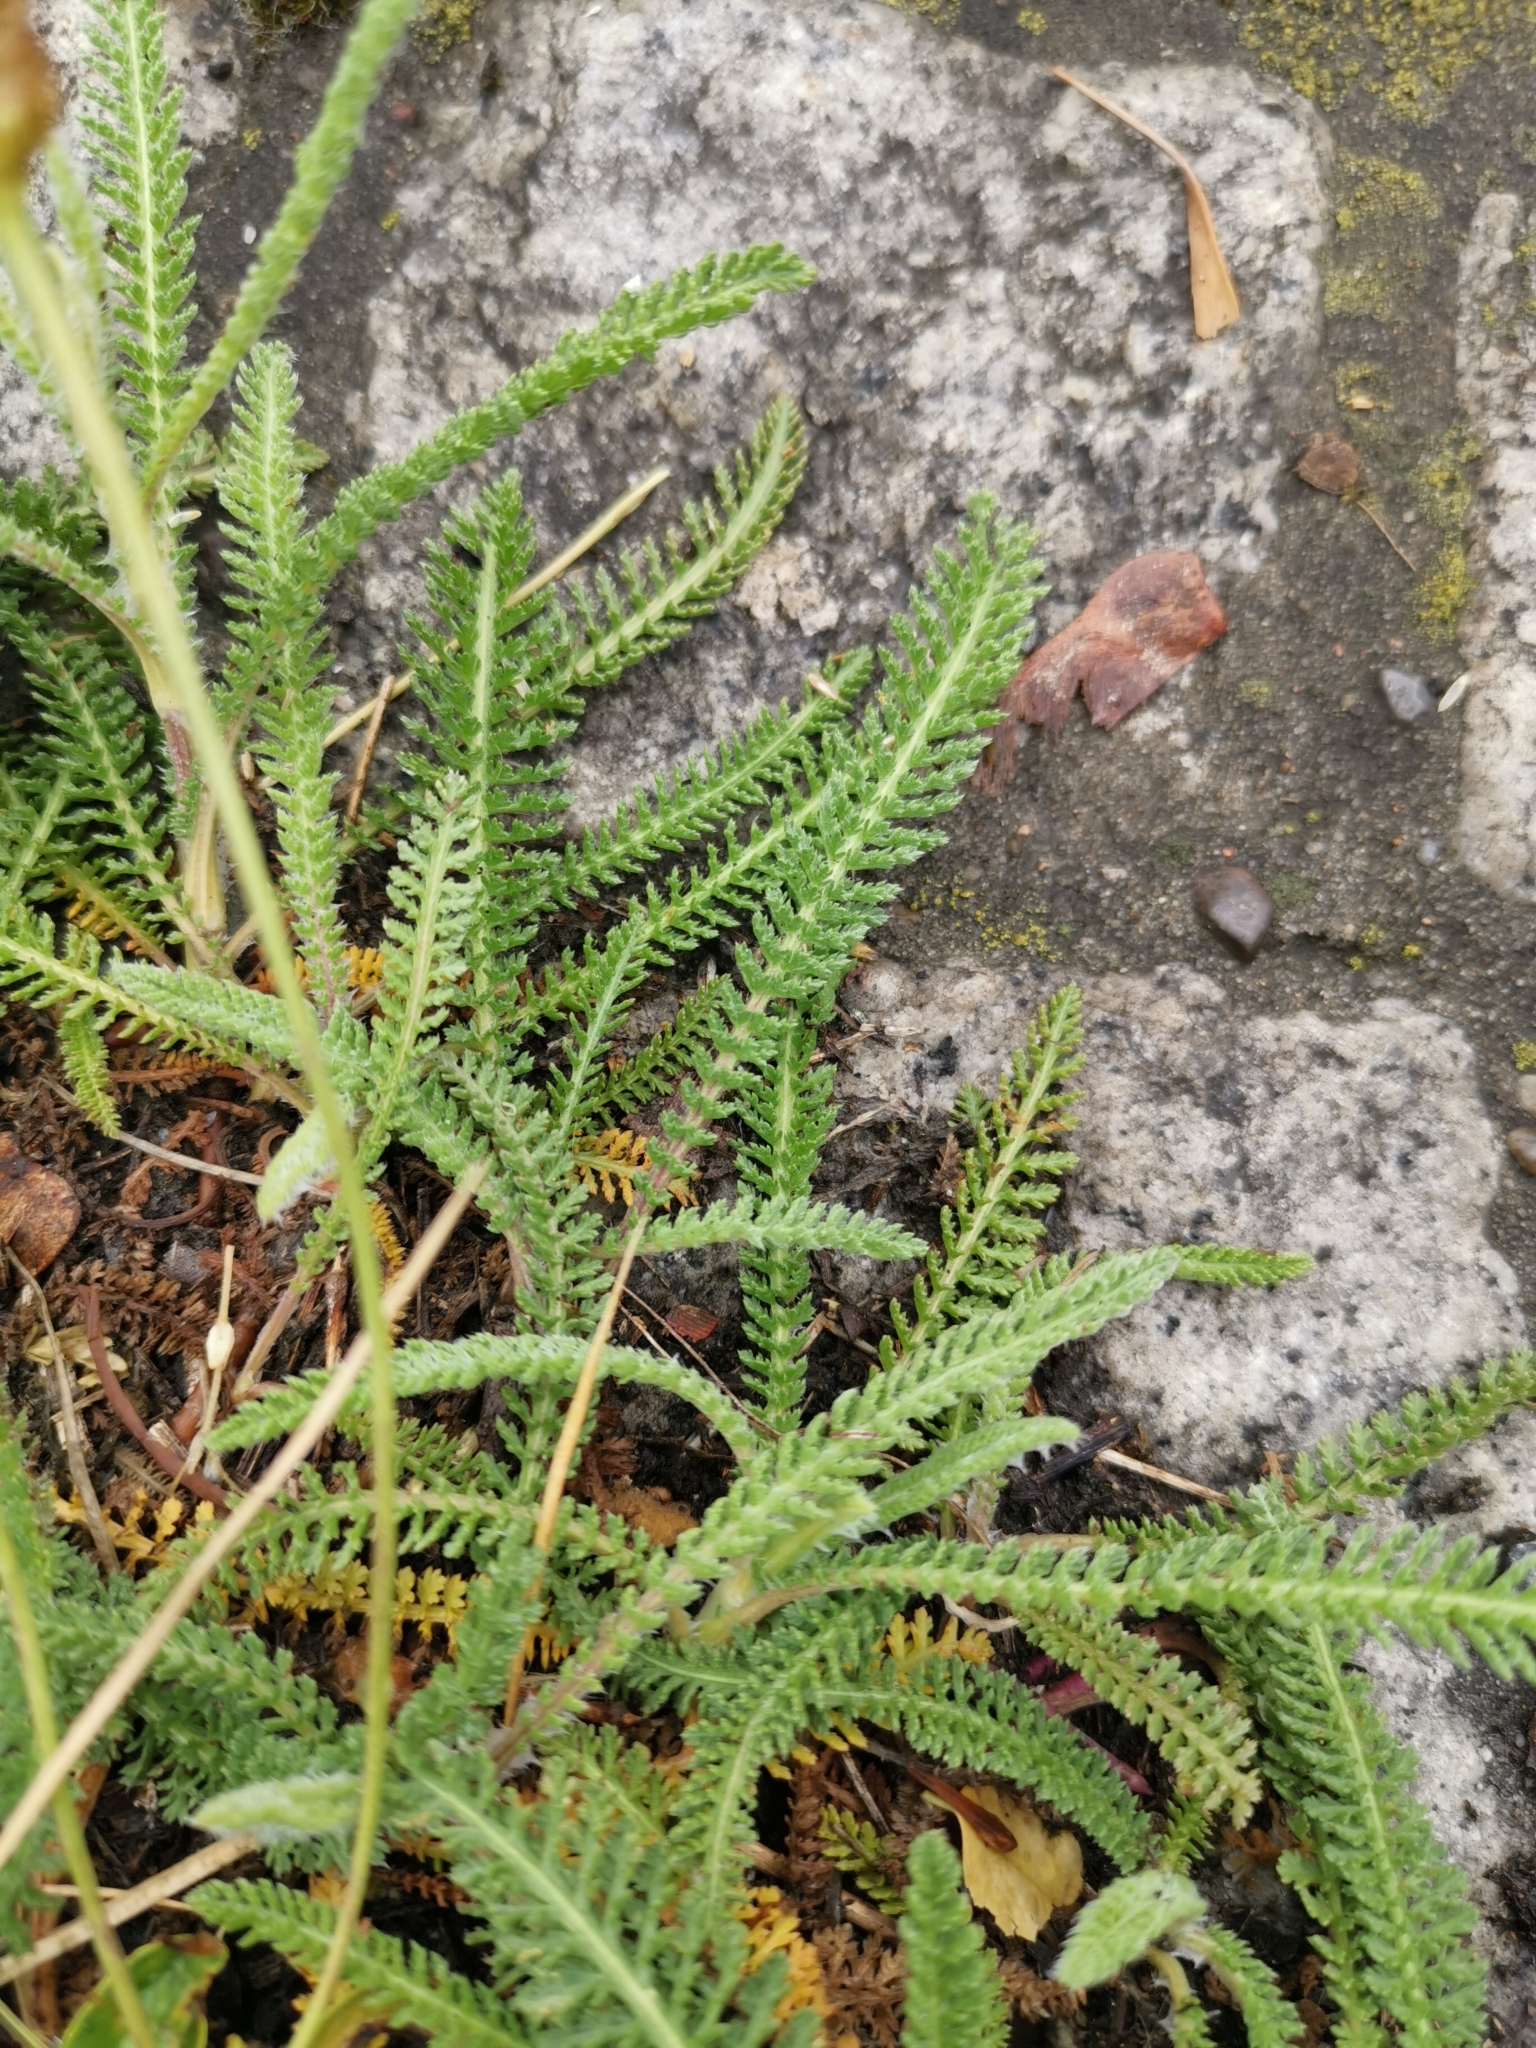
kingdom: Plantae
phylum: Tracheophyta
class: Magnoliopsida
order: Asterales
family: Asteraceae
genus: Achillea
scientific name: Achillea millefolium
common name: Yarrow
